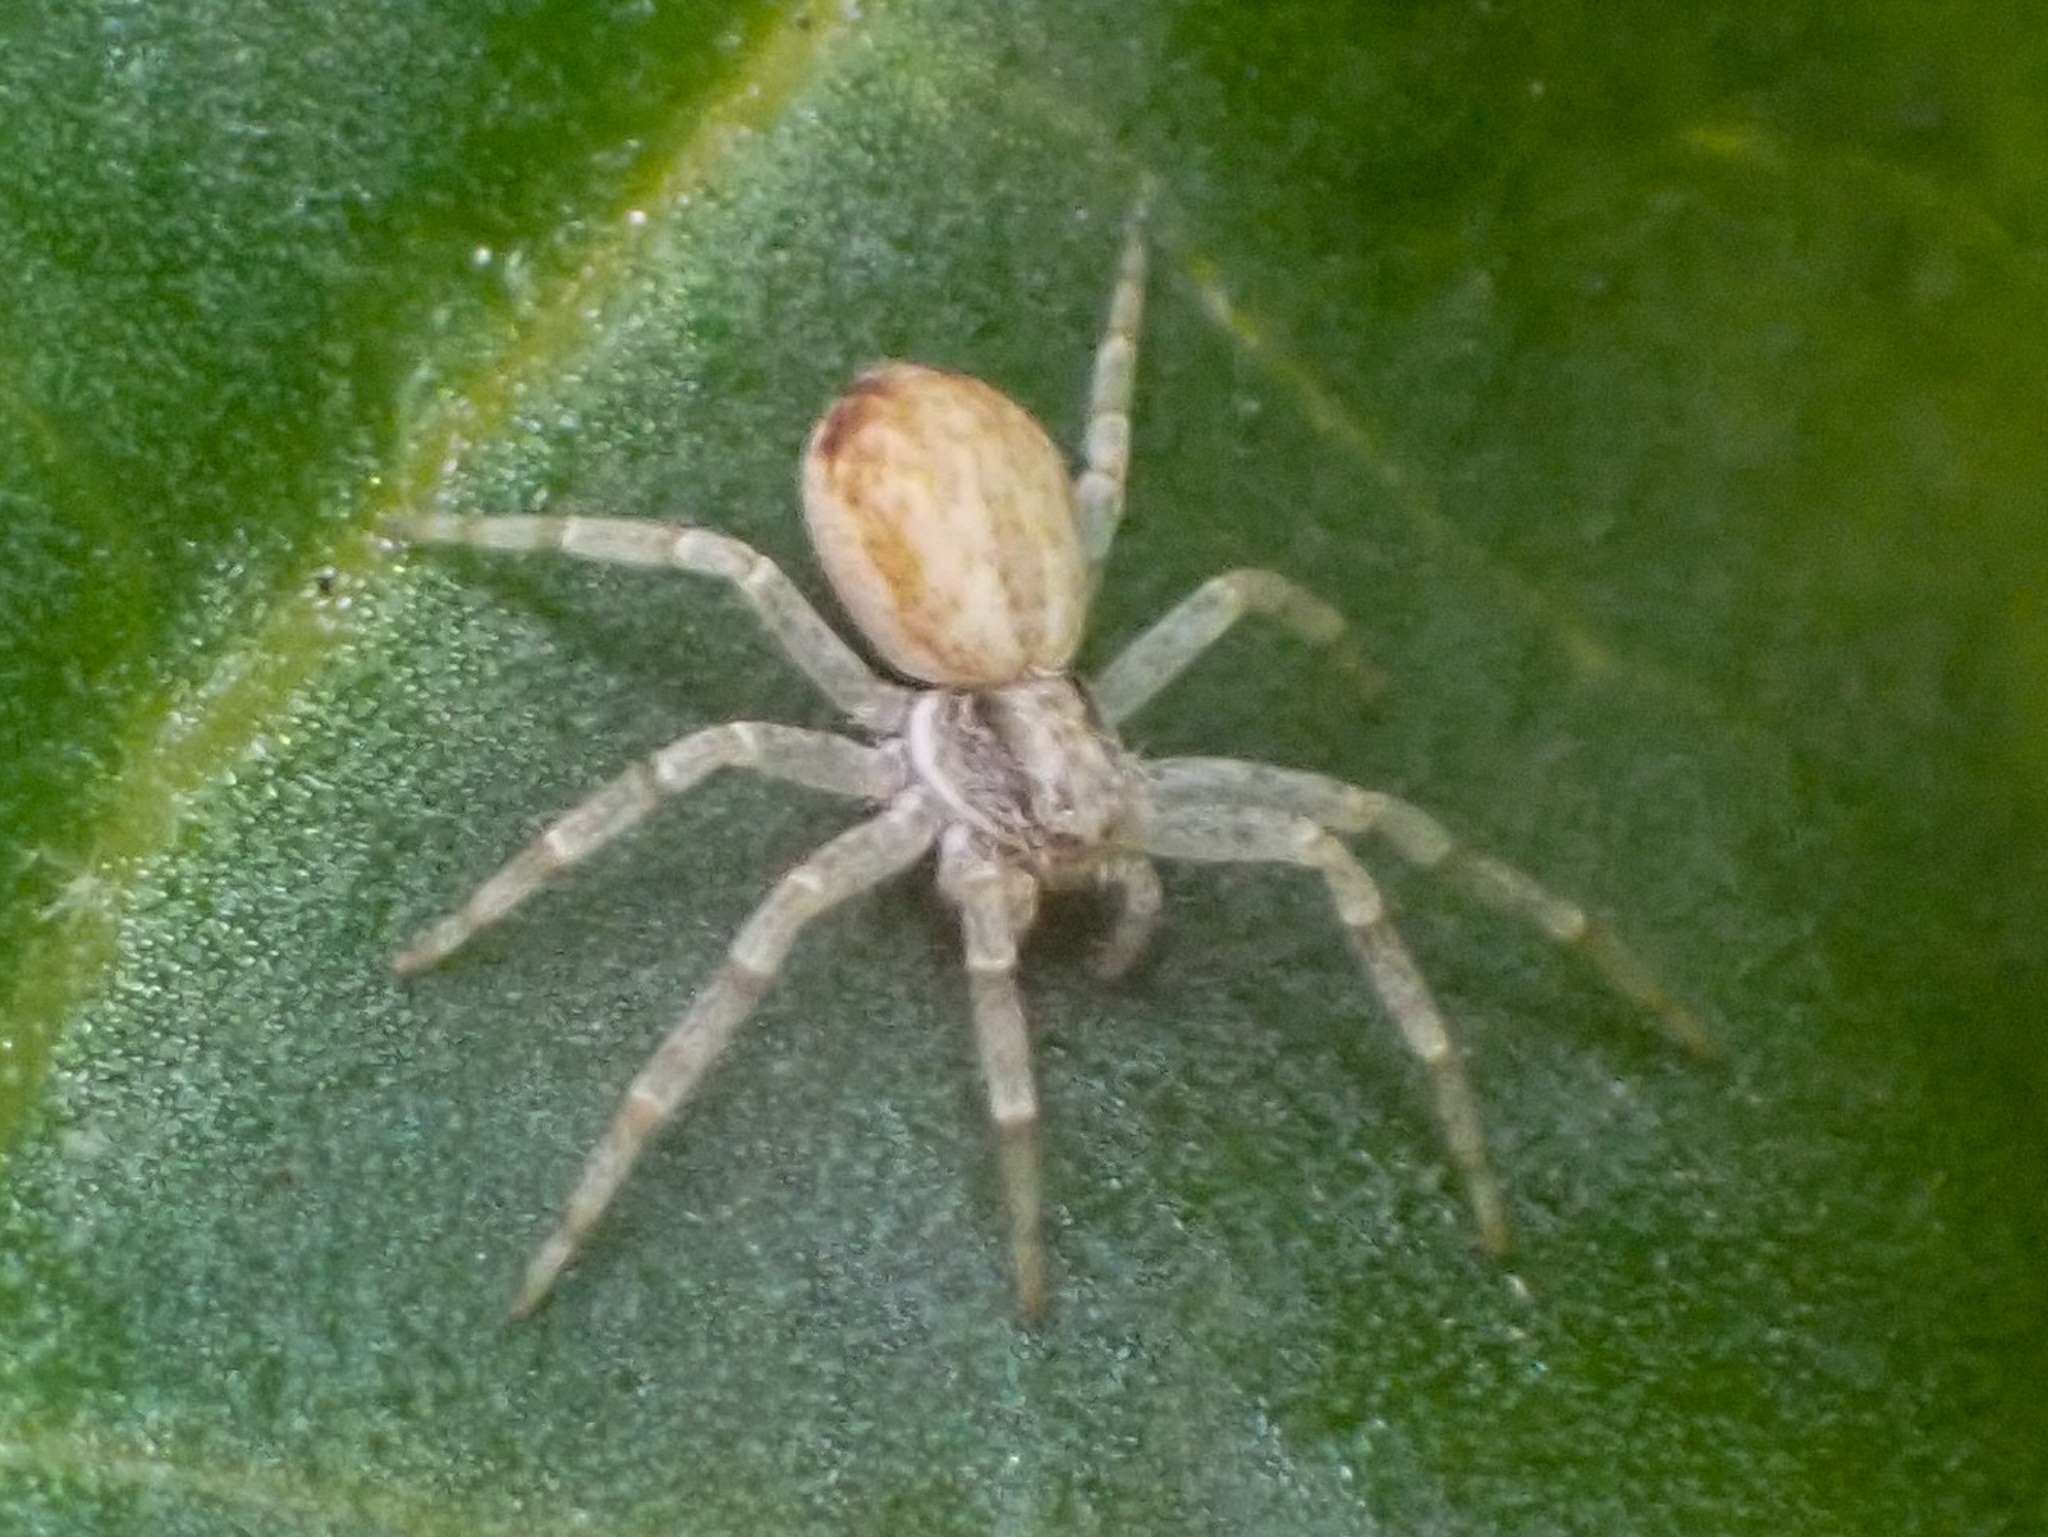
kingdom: Animalia
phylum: Arthropoda
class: Arachnida
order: Araneae
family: Philodromidae
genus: Philodromus
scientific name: Philodromus dispar
